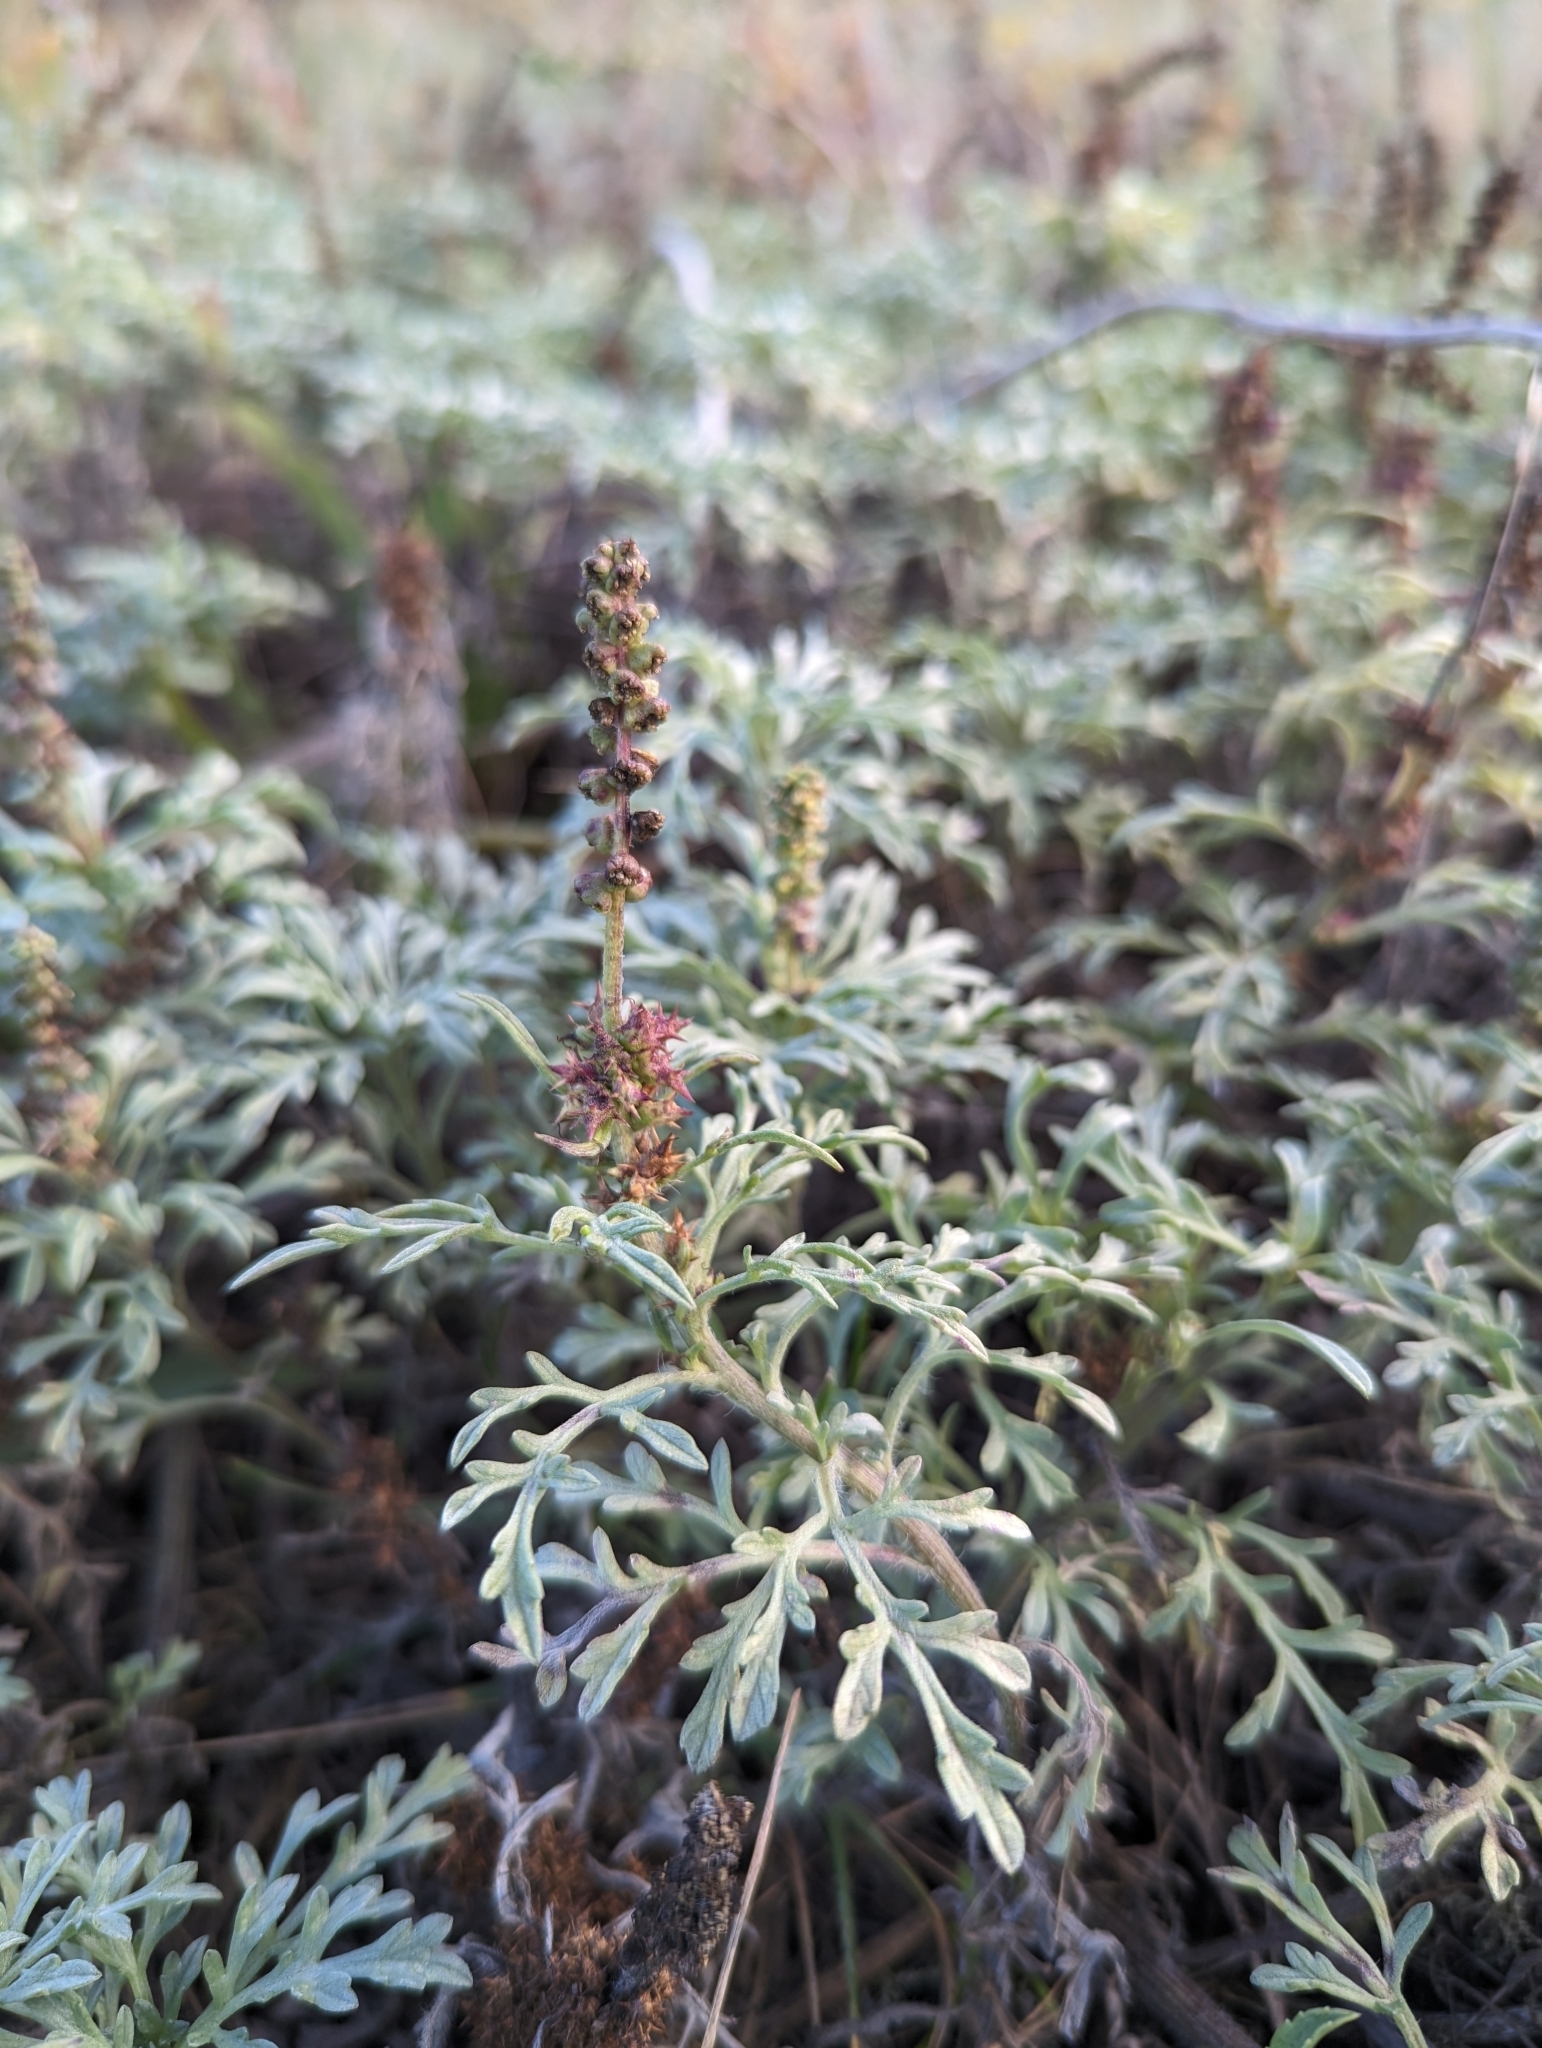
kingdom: Plantae
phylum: Tracheophyta
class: Magnoliopsida
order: Asterales
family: Asteraceae
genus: Ambrosia
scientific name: Ambrosia chamissonis
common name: Beachbur
